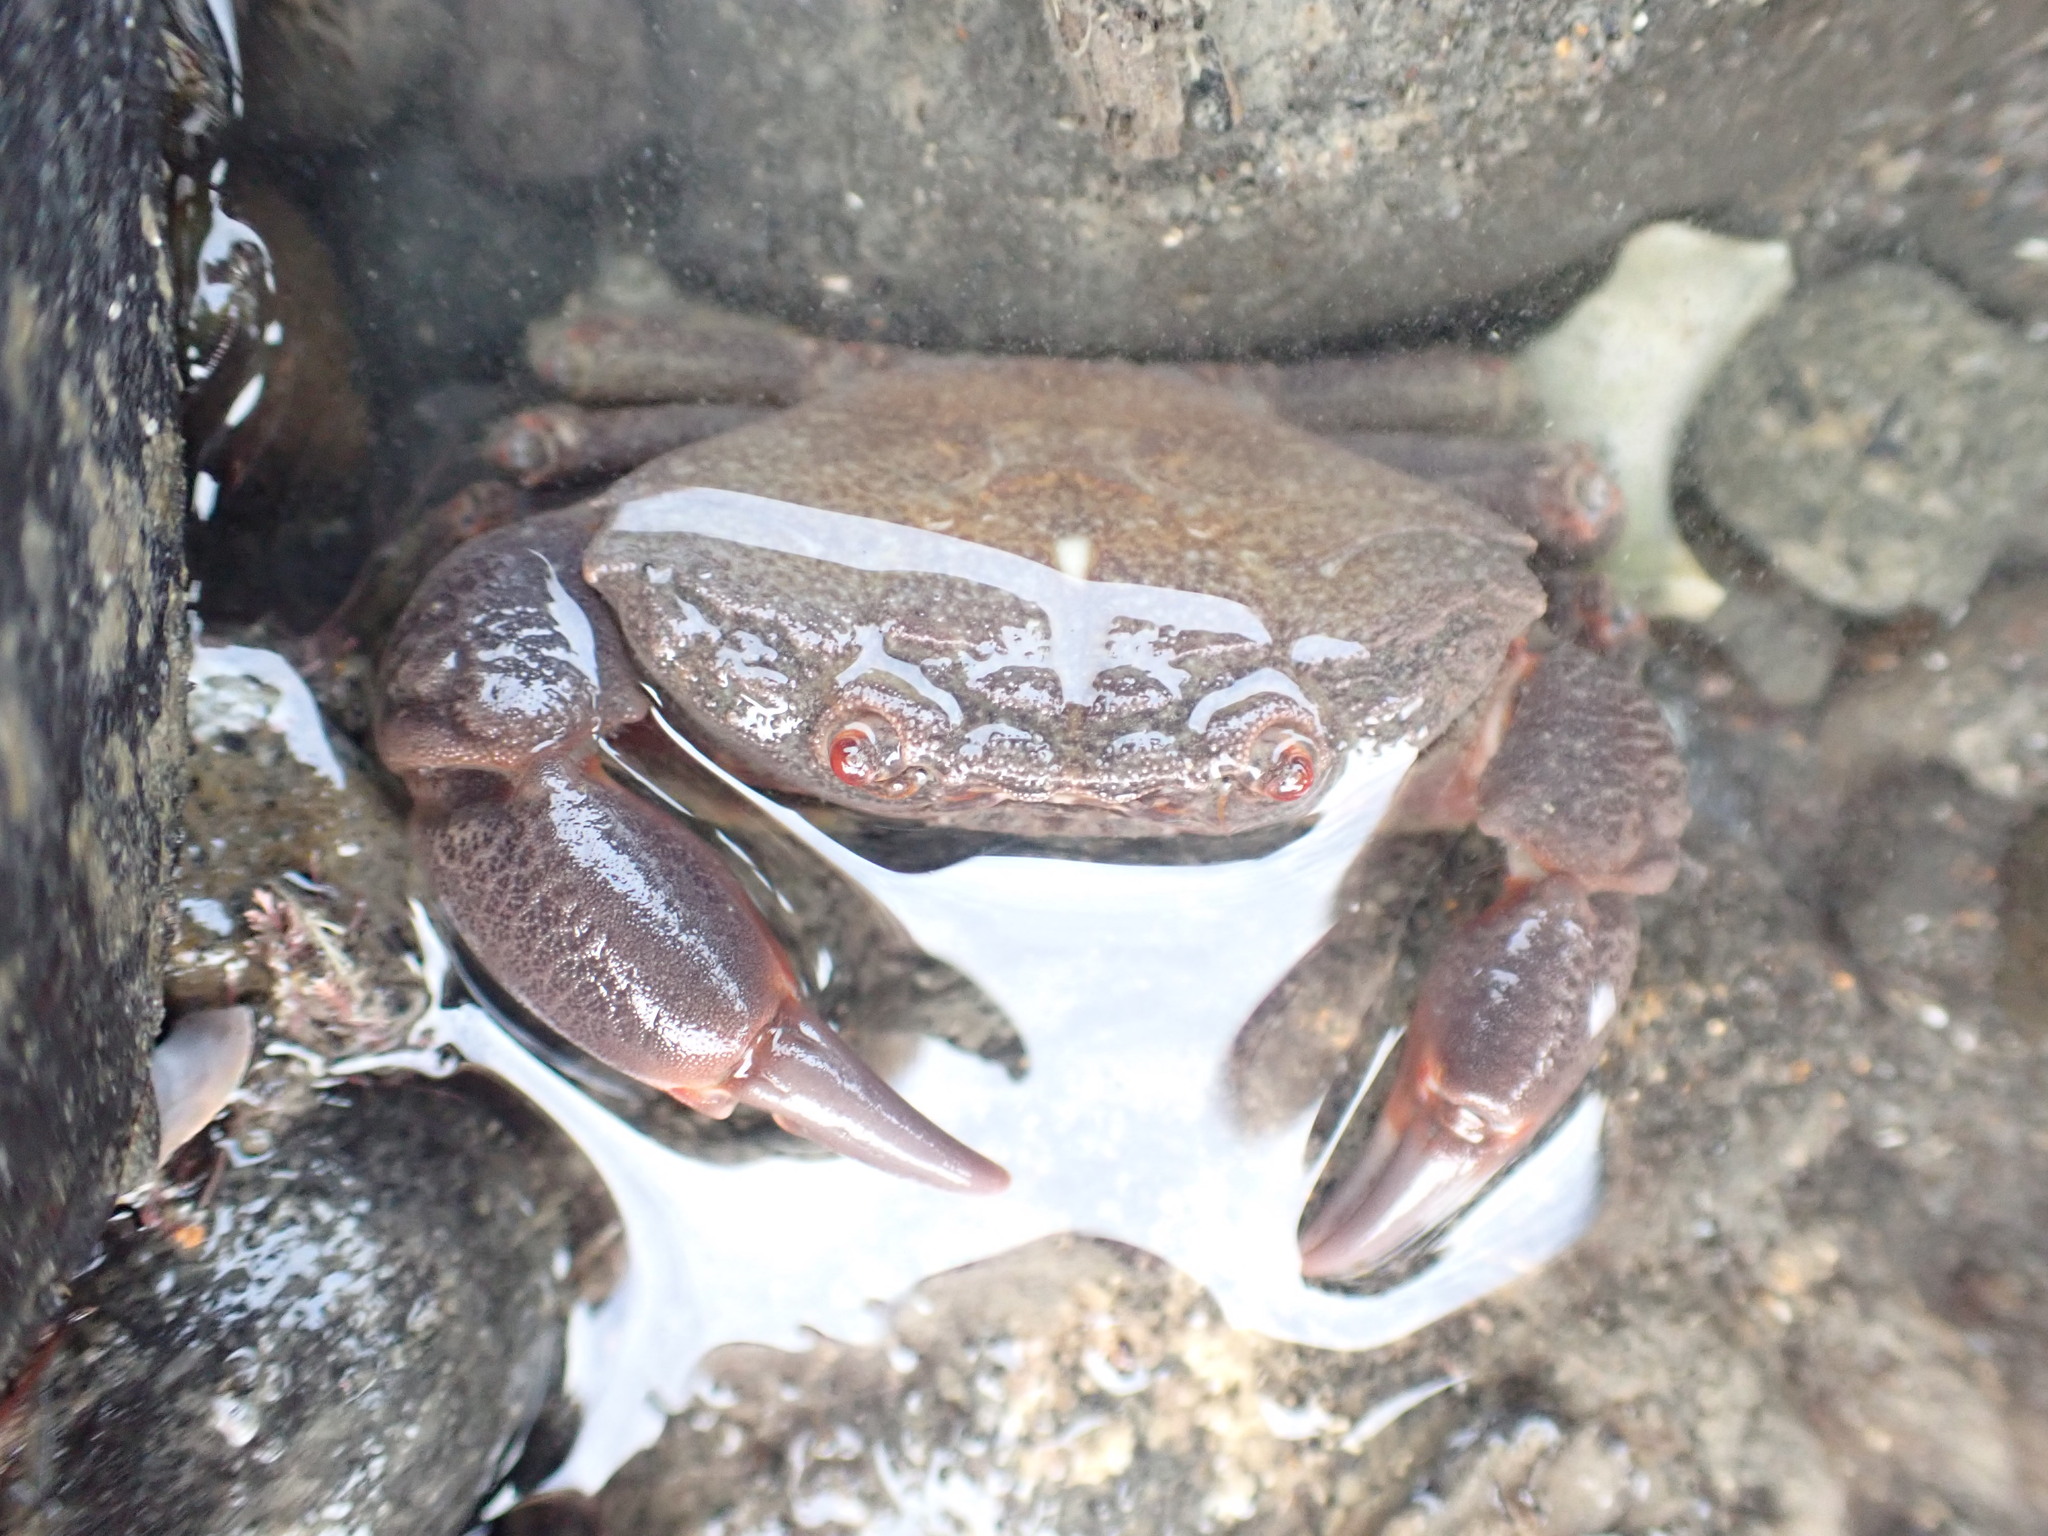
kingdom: Animalia
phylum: Arthropoda
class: Malacostraca
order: Decapoda
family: Oziidae
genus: Ozius
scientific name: Ozius deplanatus
